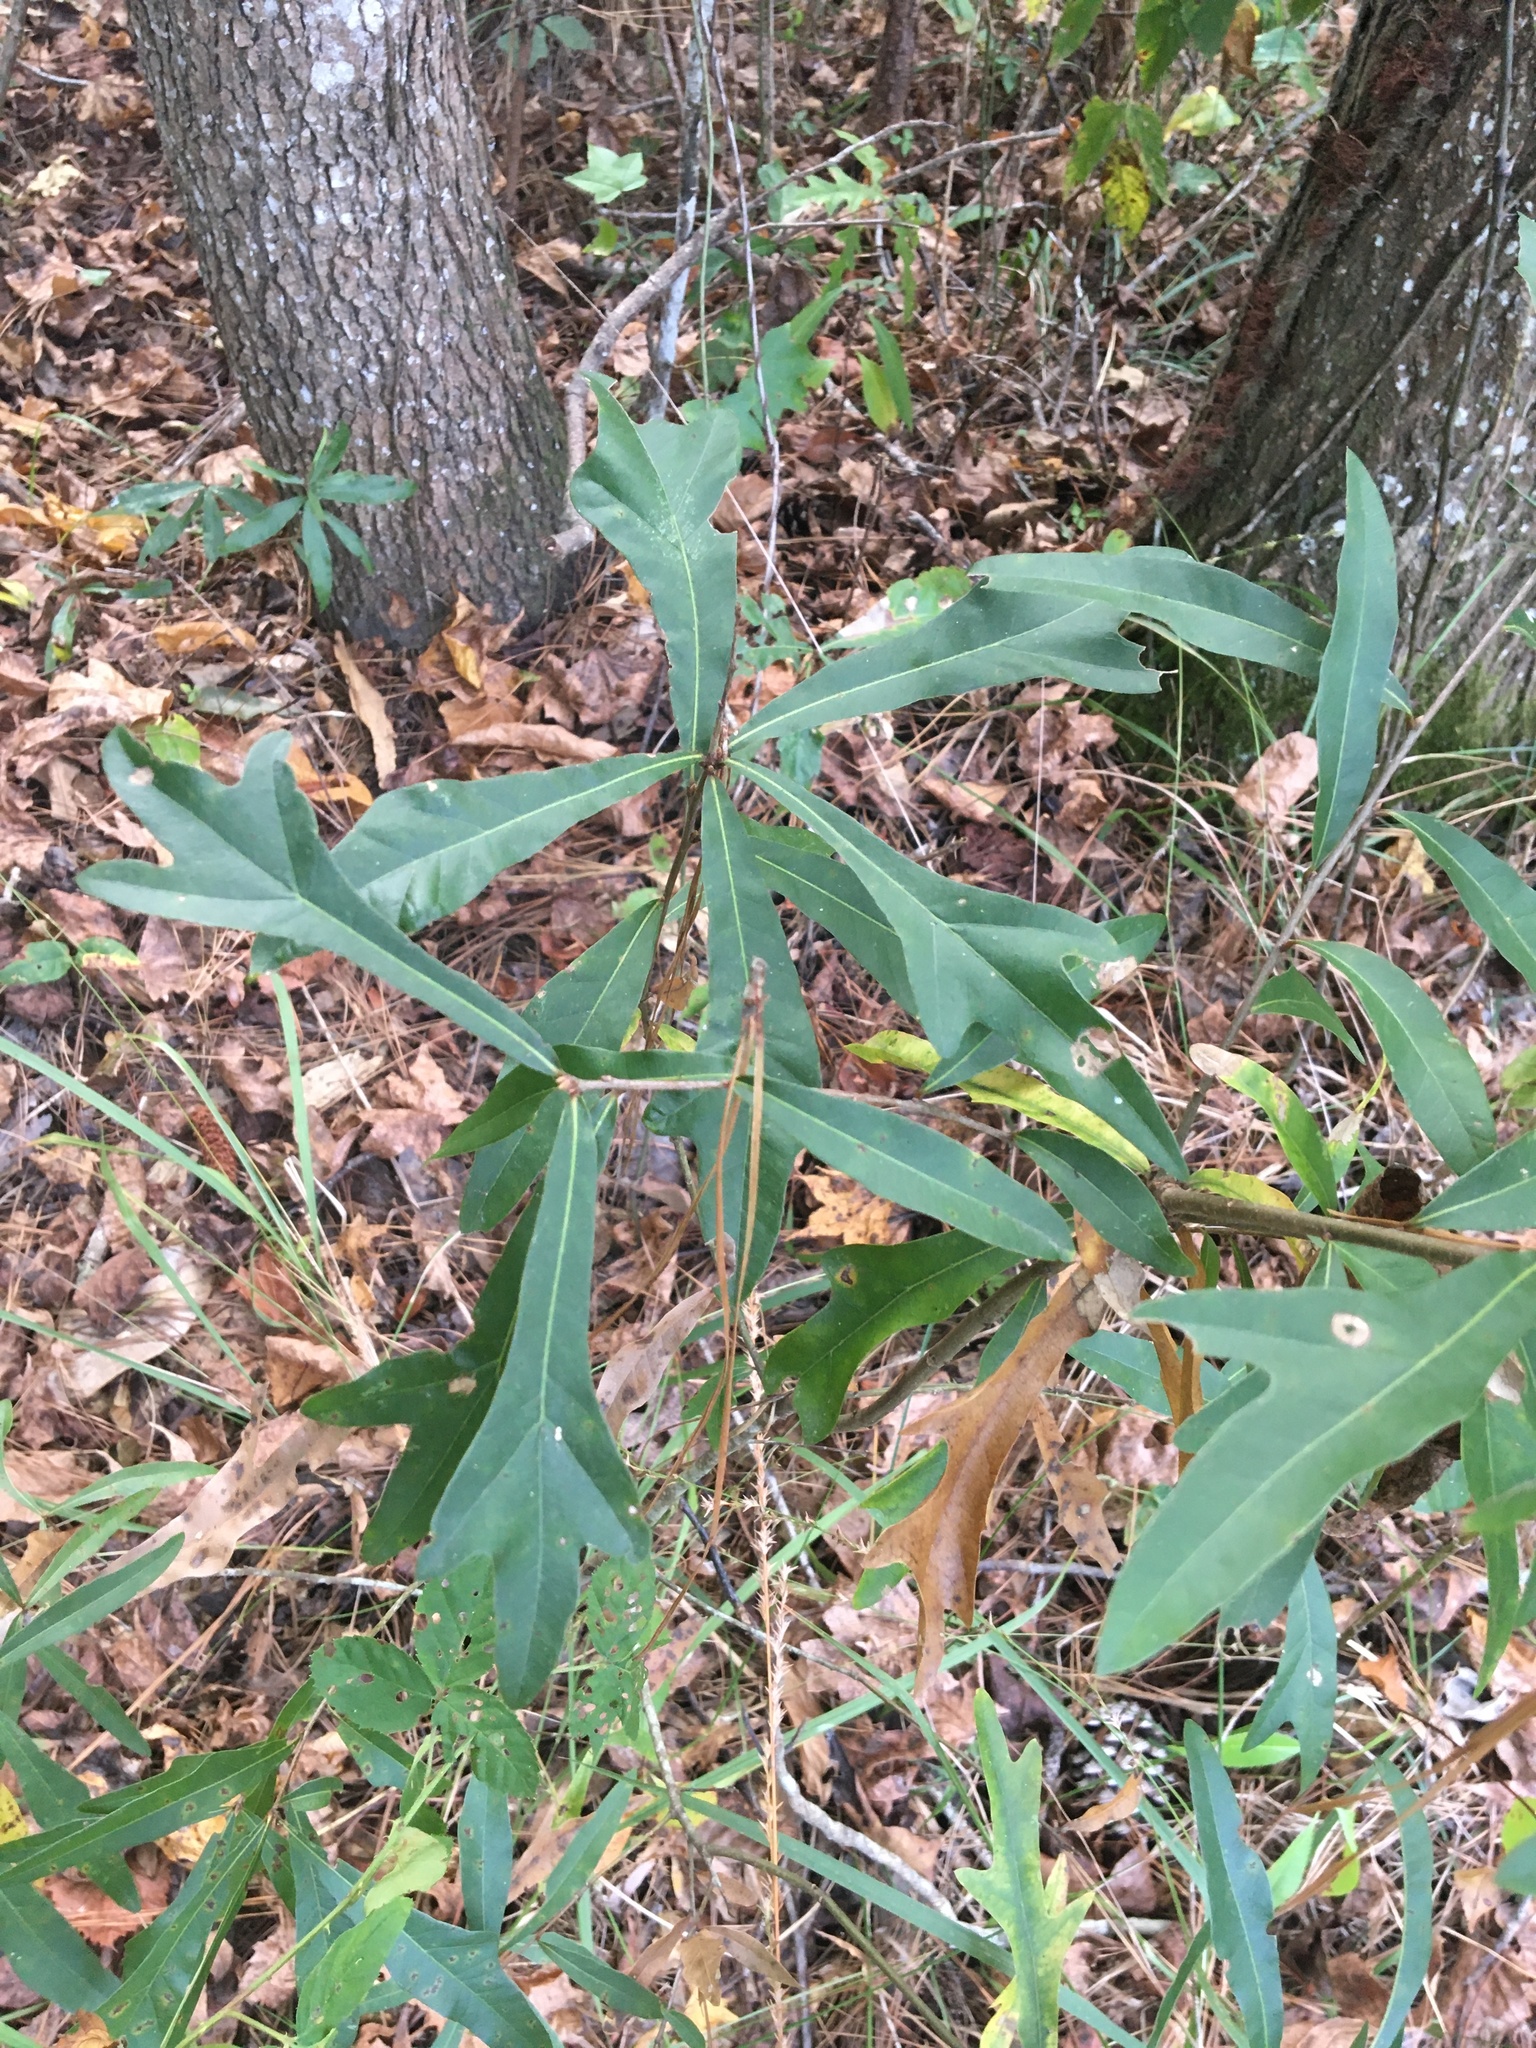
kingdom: Plantae
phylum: Tracheophyta
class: Magnoliopsida
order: Fagales
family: Fagaceae
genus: Quercus
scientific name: Quercus nigra
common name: Water oak
